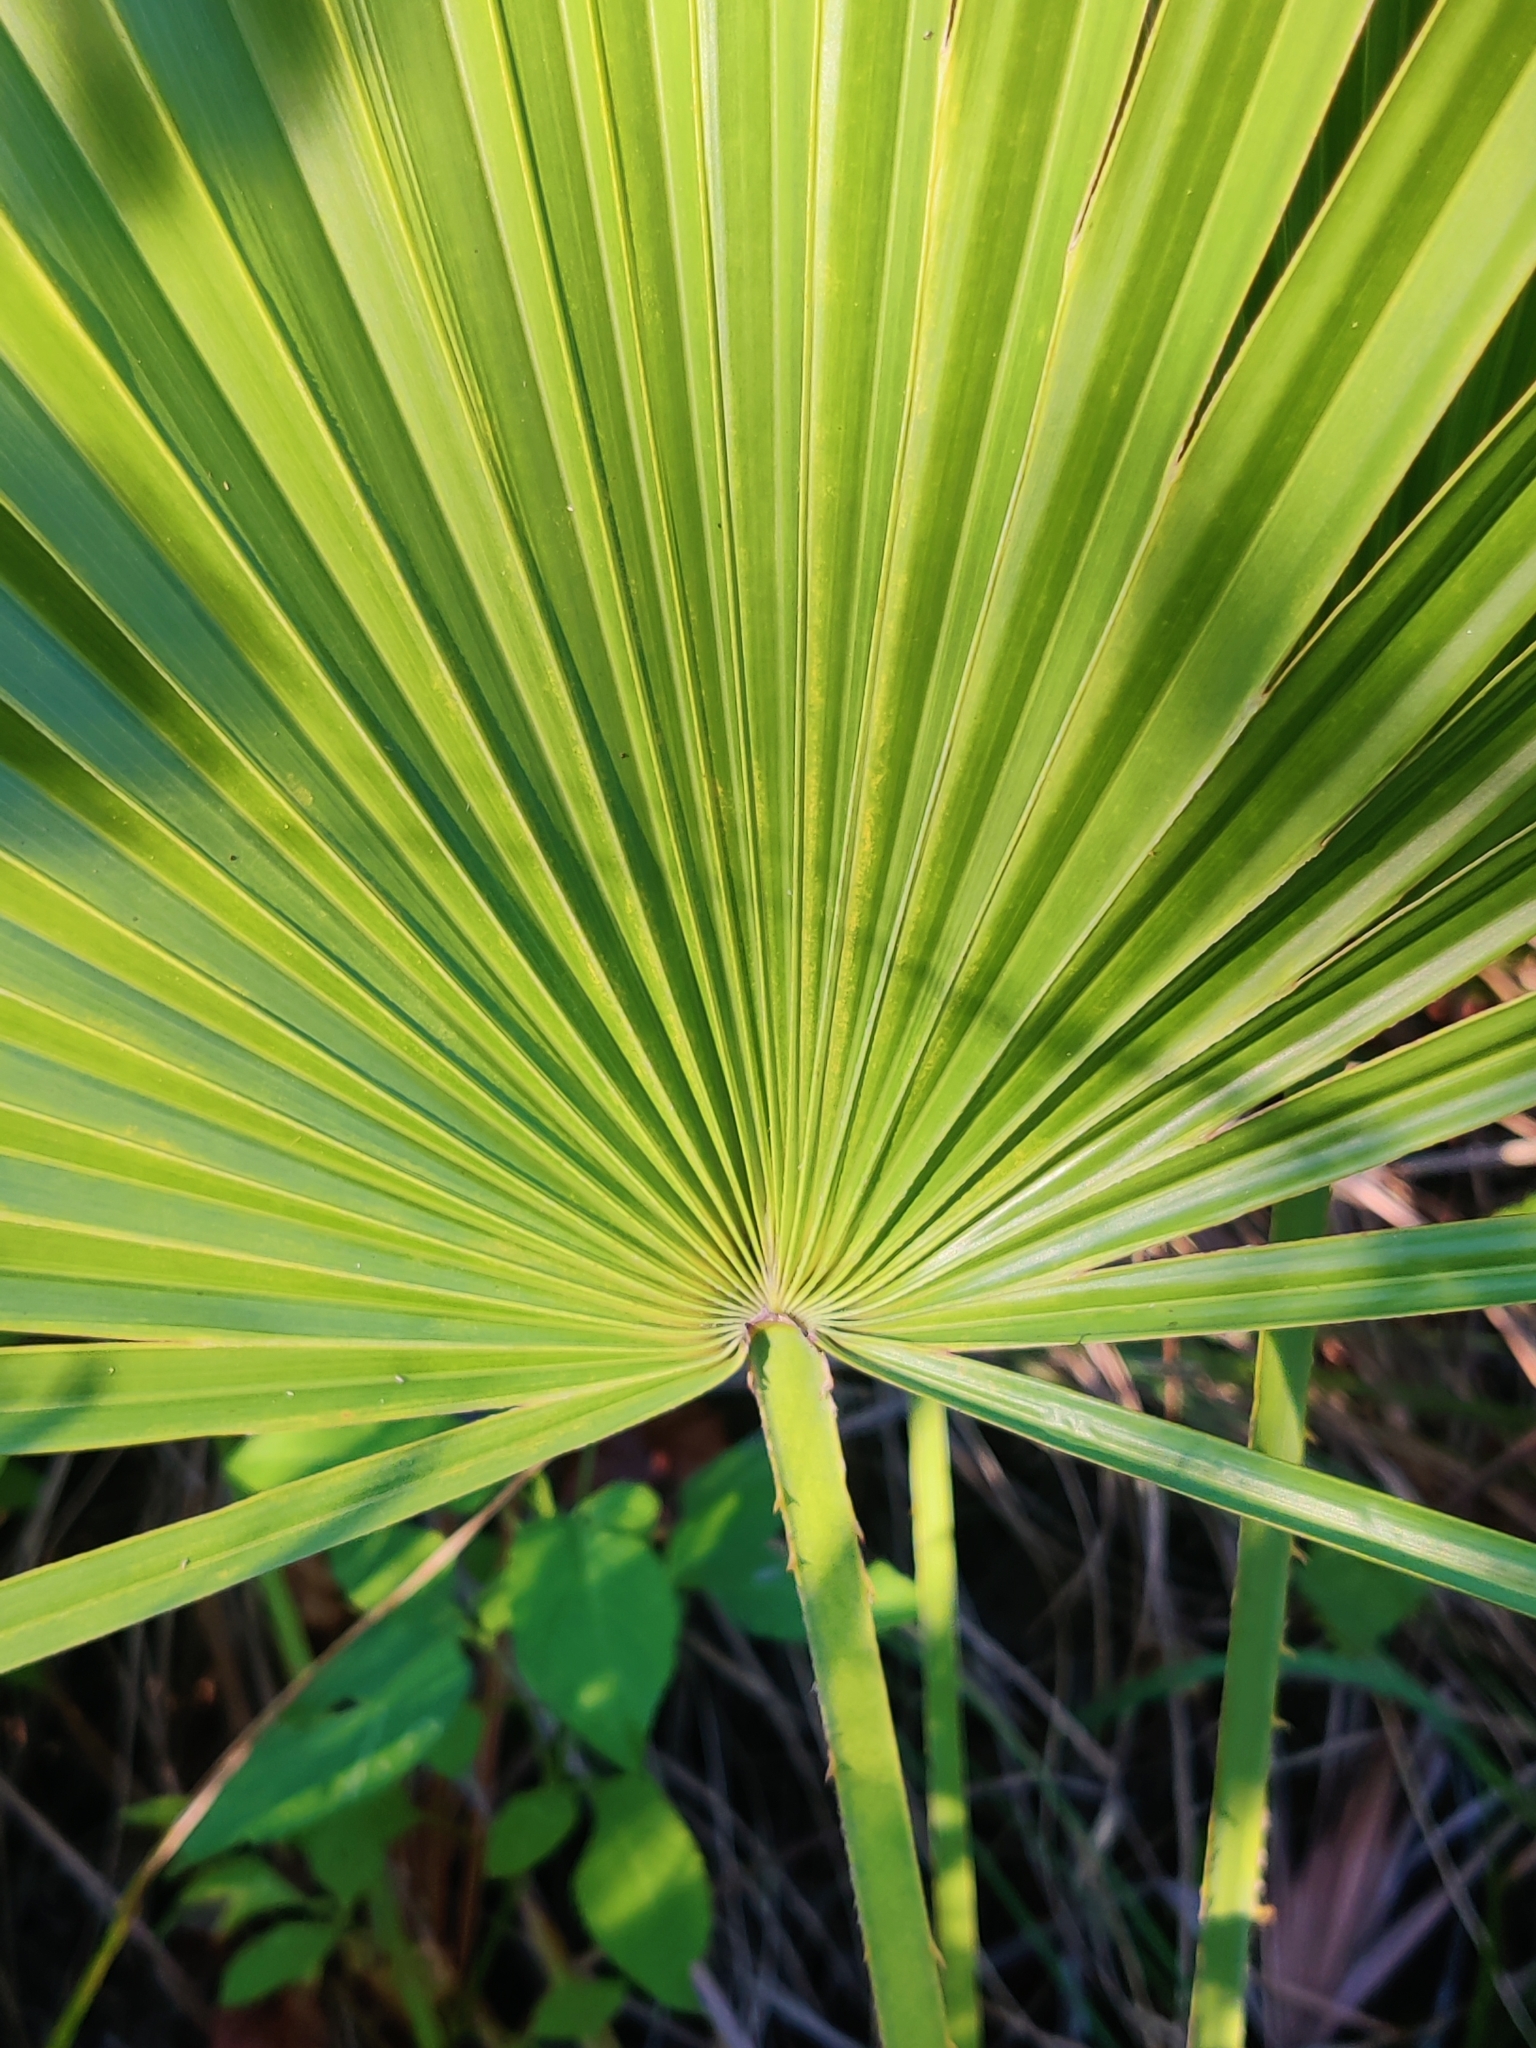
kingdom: Plantae
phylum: Tracheophyta
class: Liliopsida
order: Arecales
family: Arecaceae
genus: Acoelorraphe
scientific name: Acoelorraphe wrightii
